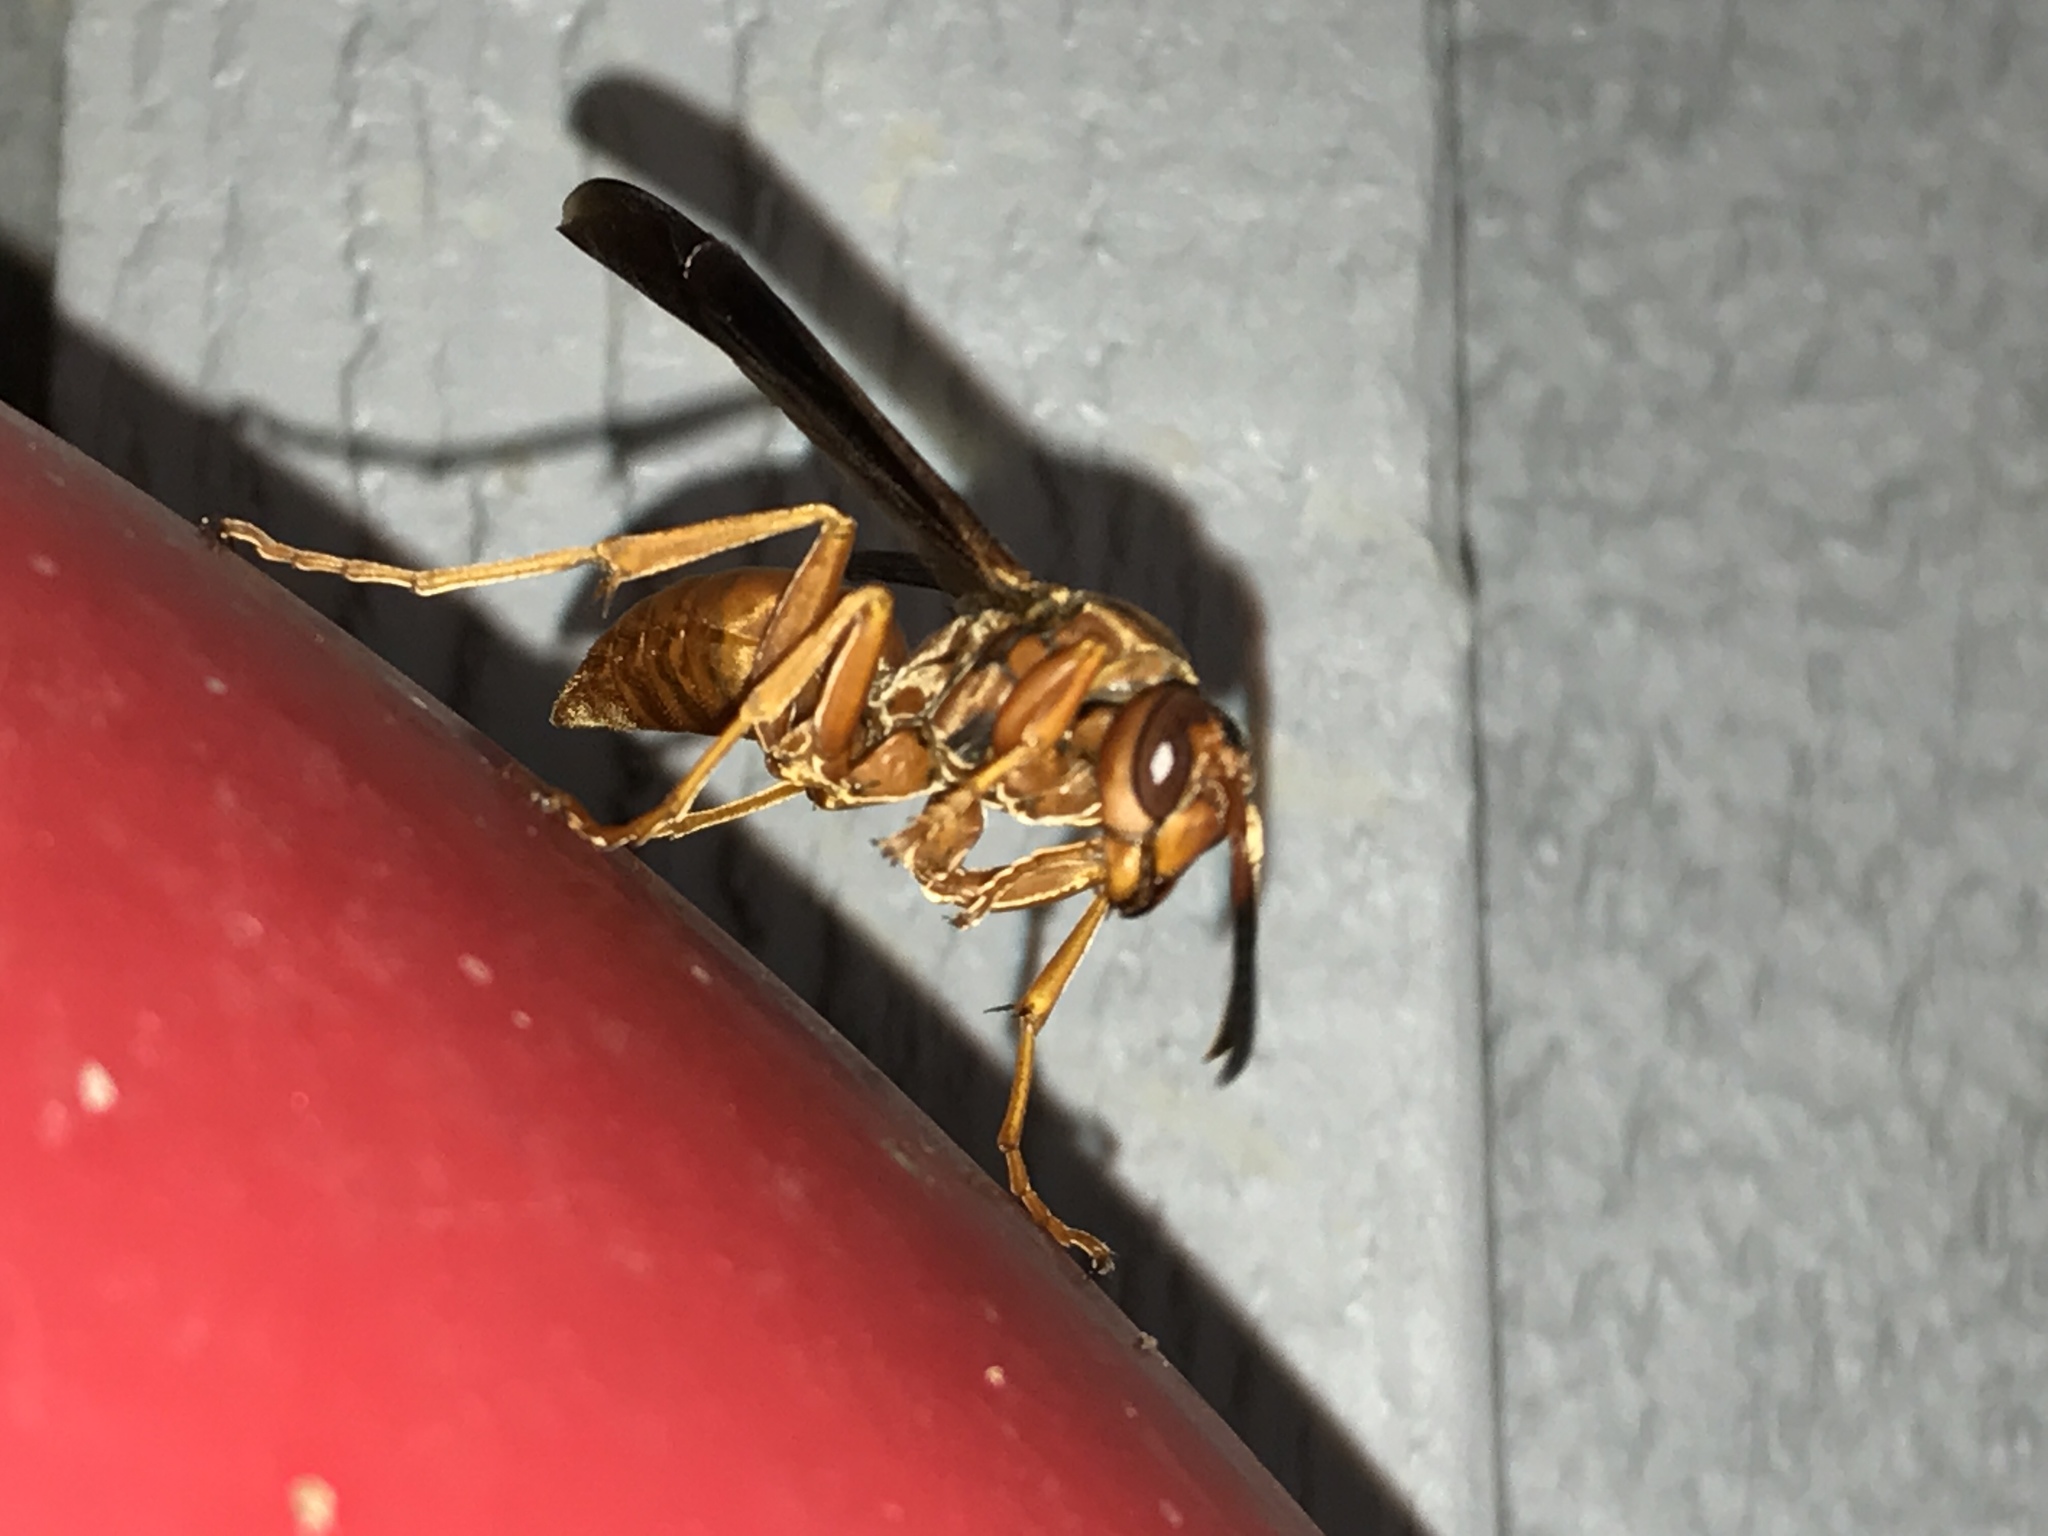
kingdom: Animalia
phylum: Arthropoda
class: Insecta
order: Hymenoptera
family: Vespidae
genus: Fuscopolistes
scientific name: Fuscopolistes
